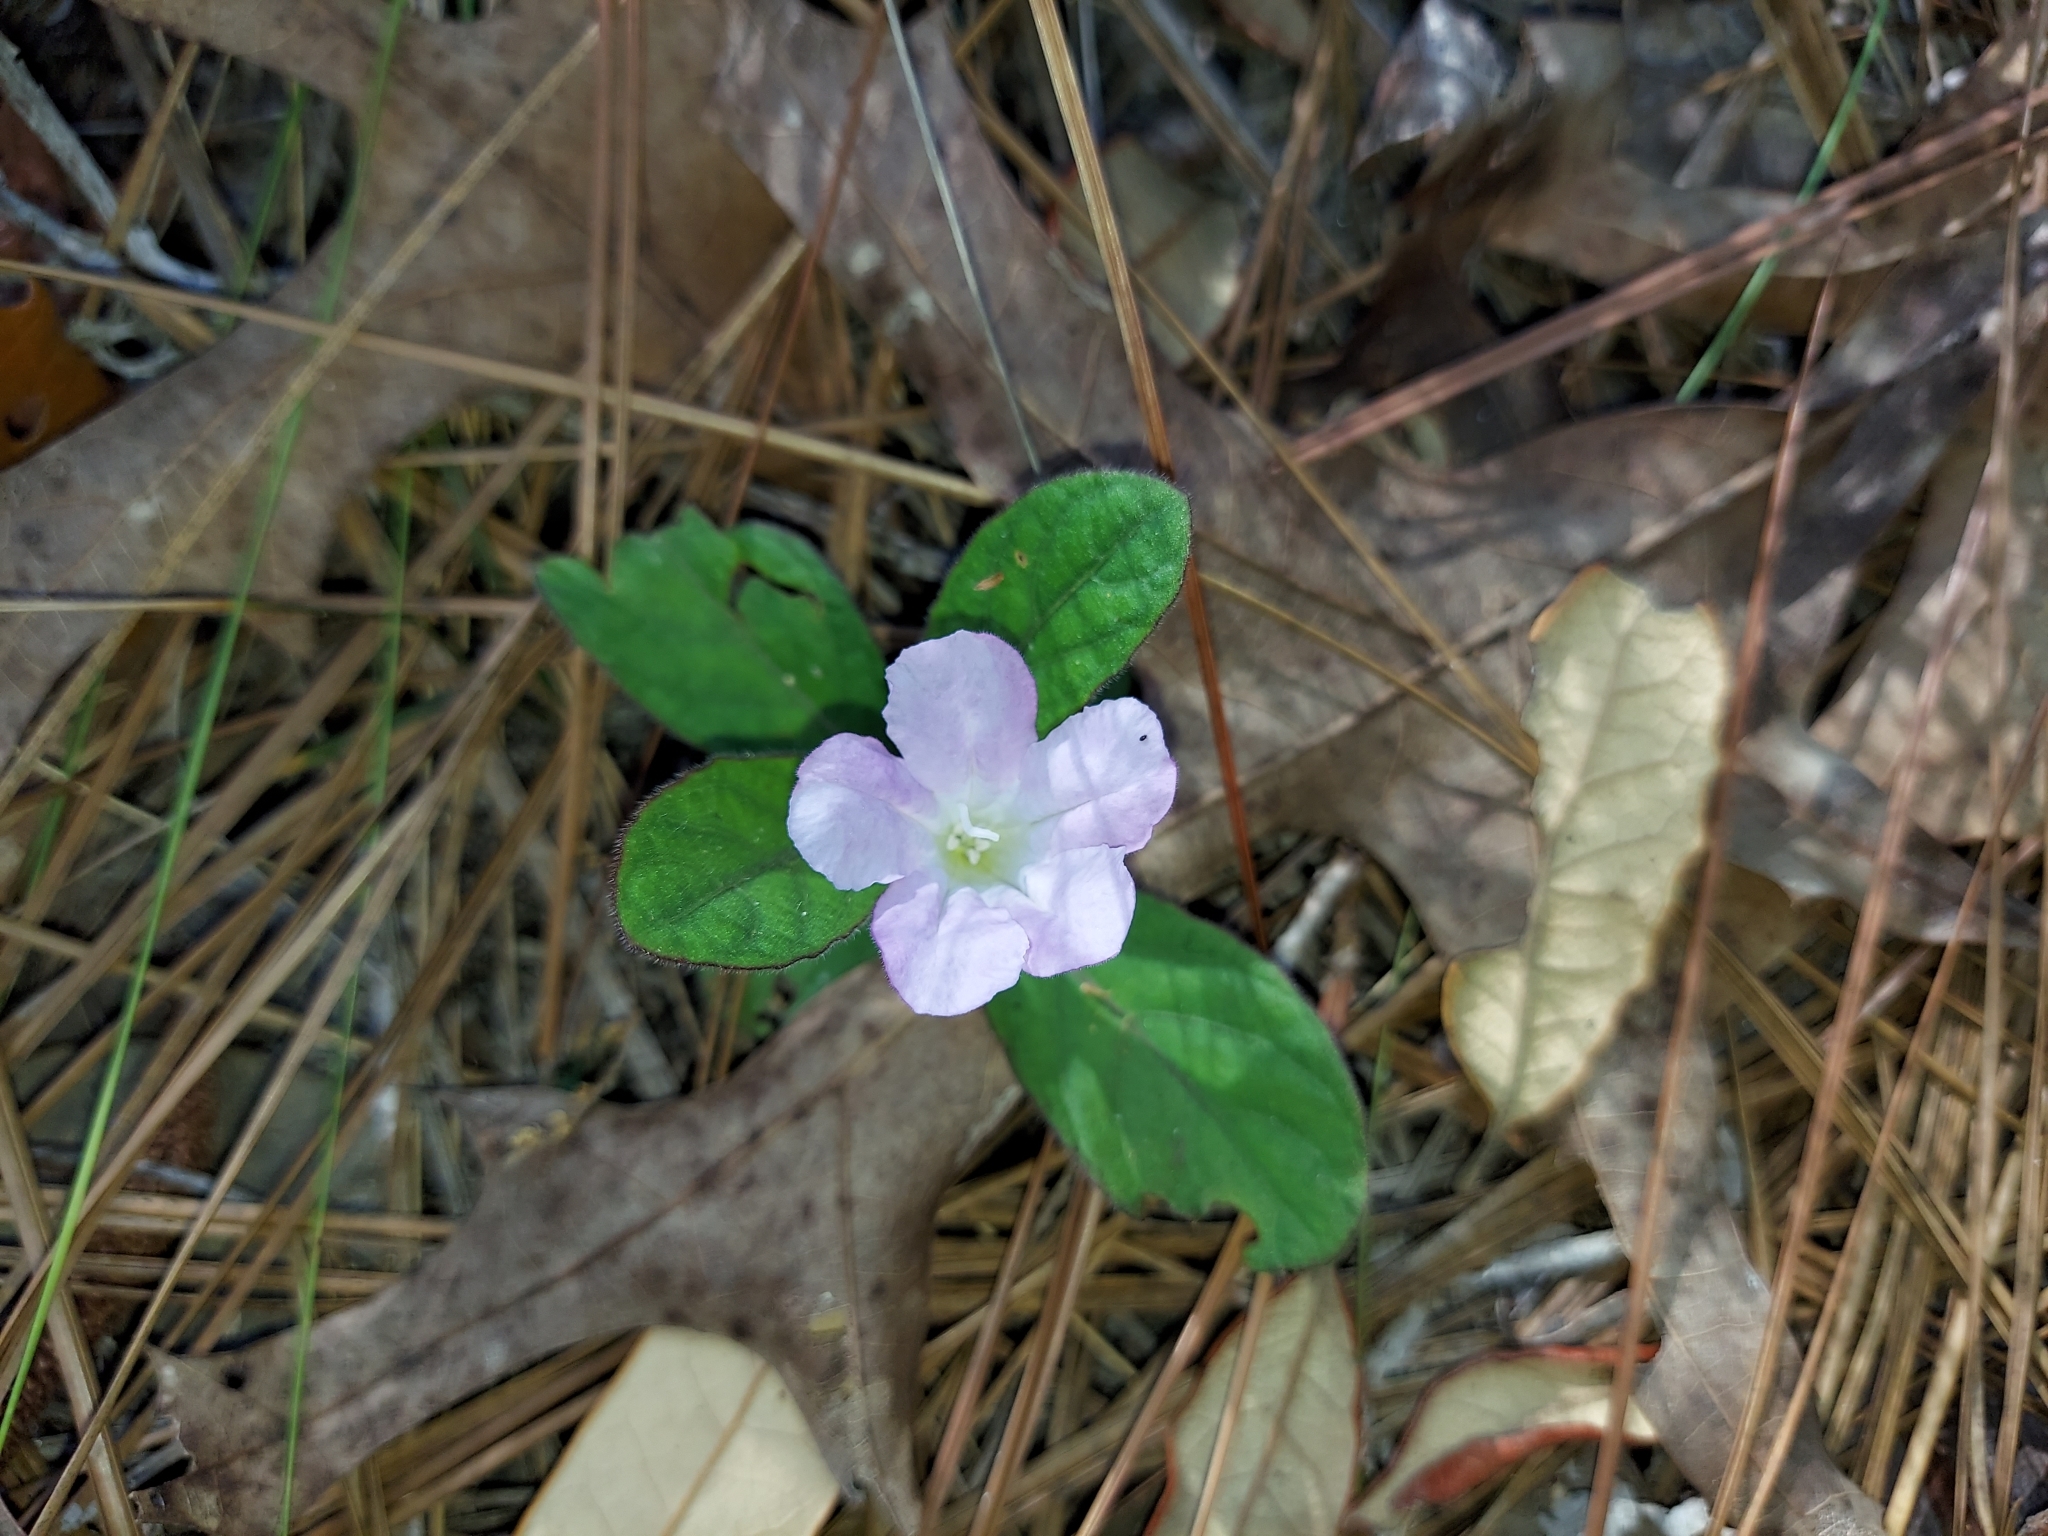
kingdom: Plantae
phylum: Tracheophyta
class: Magnoliopsida
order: Lamiales
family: Acanthaceae
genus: Ruellia
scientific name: Ruellia caroliniensis
